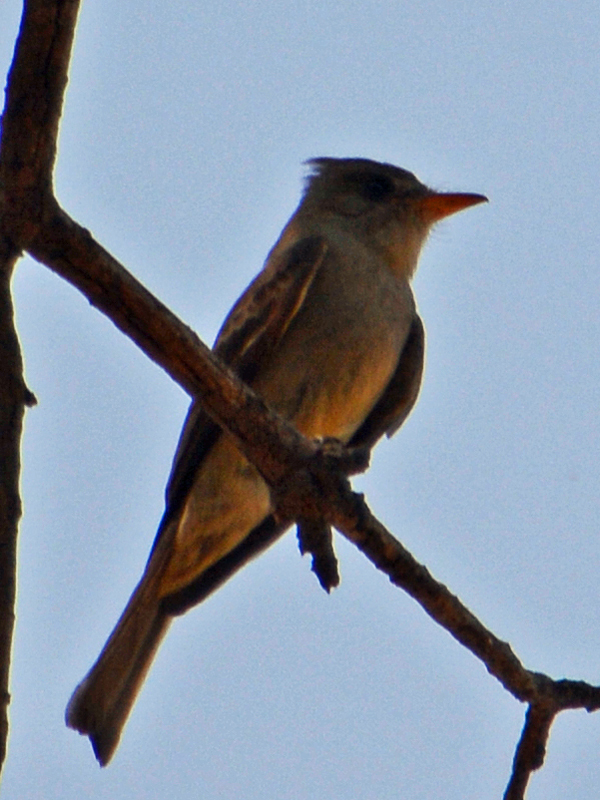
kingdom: Animalia
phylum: Chordata
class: Aves
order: Passeriformes
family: Tyrannidae
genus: Contopus
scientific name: Contopus pertinax
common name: Greater pewee
